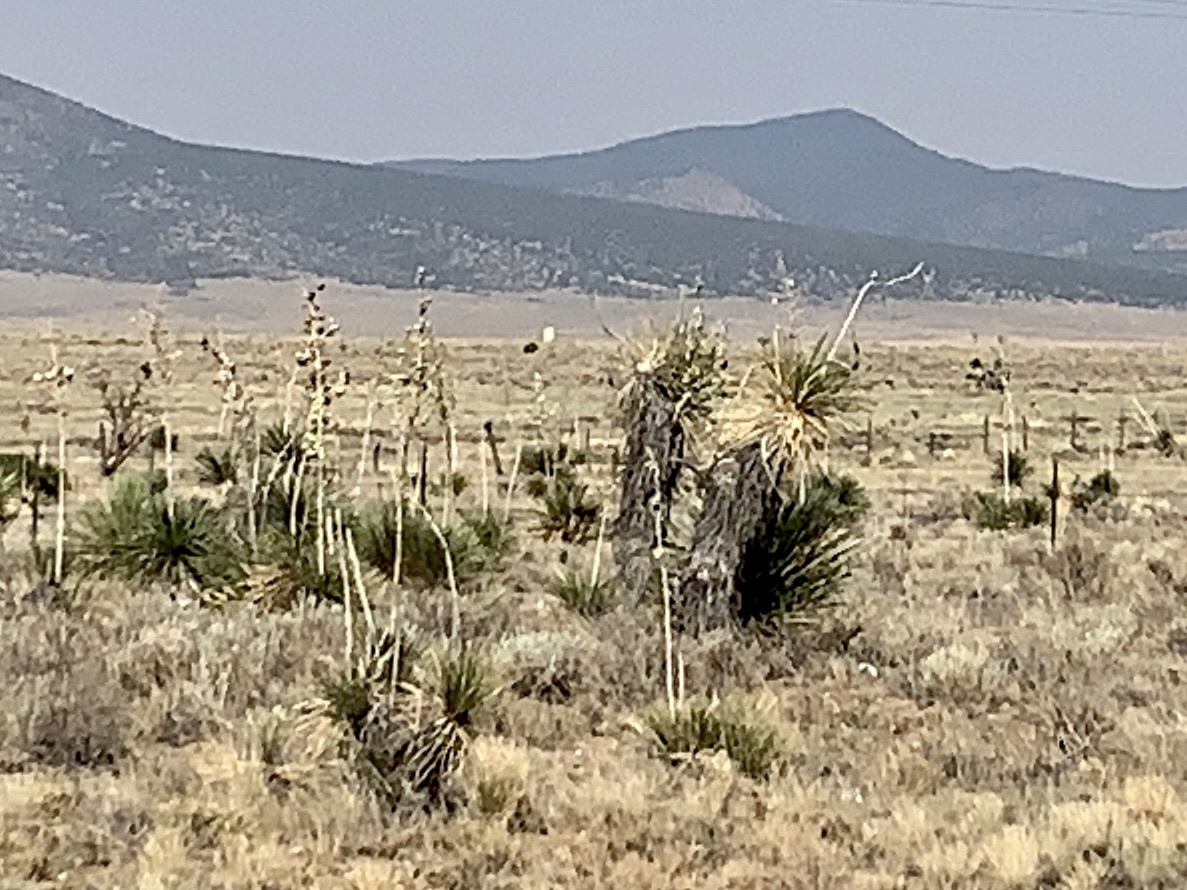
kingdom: Plantae
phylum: Tracheophyta
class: Liliopsida
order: Asparagales
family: Asparagaceae
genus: Yucca
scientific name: Yucca elata
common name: Palmella
